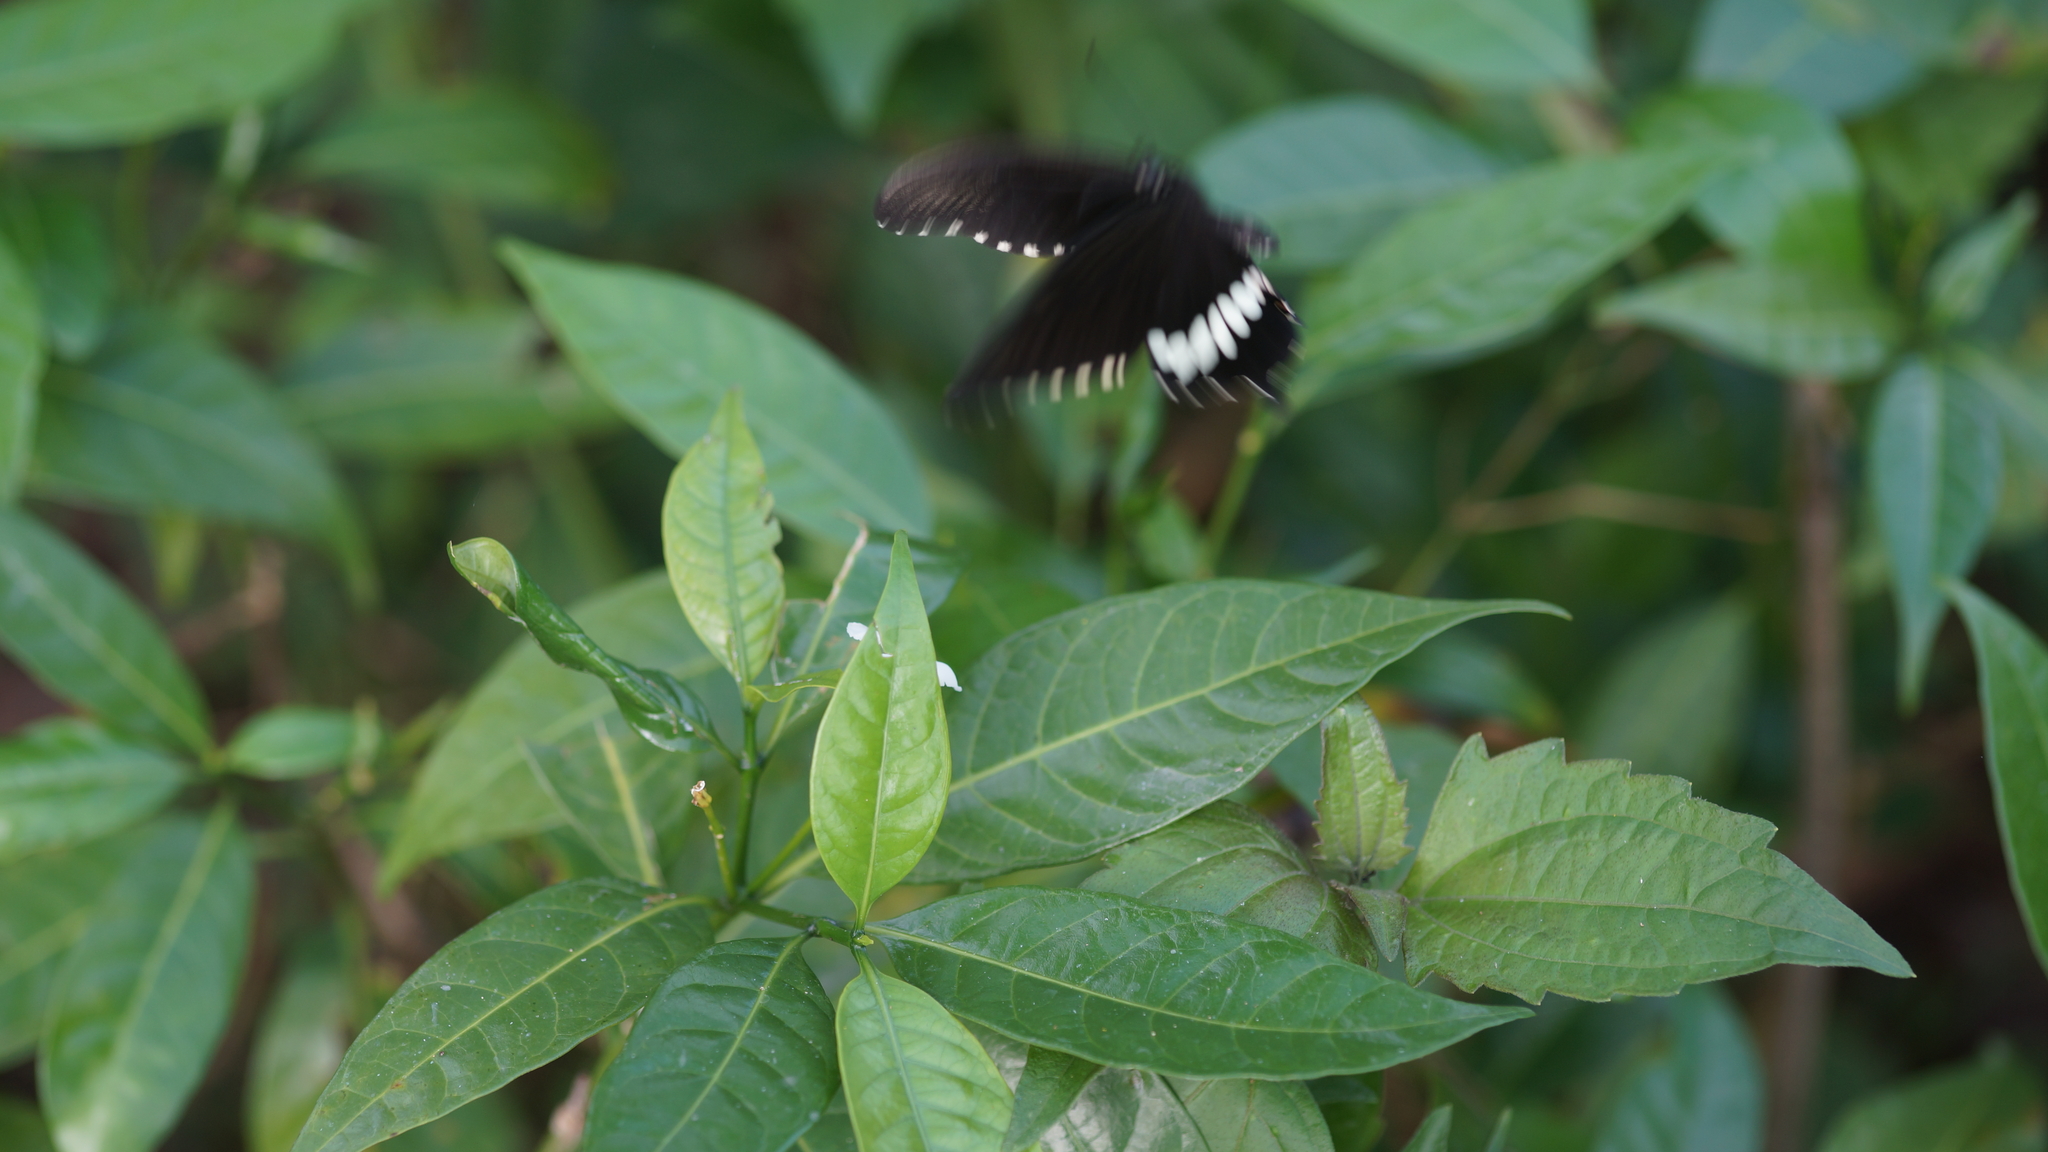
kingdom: Animalia
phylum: Arthropoda
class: Insecta
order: Lepidoptera
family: Papilionidae
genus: Papilio
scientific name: Papilio polytes
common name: Common mormon
